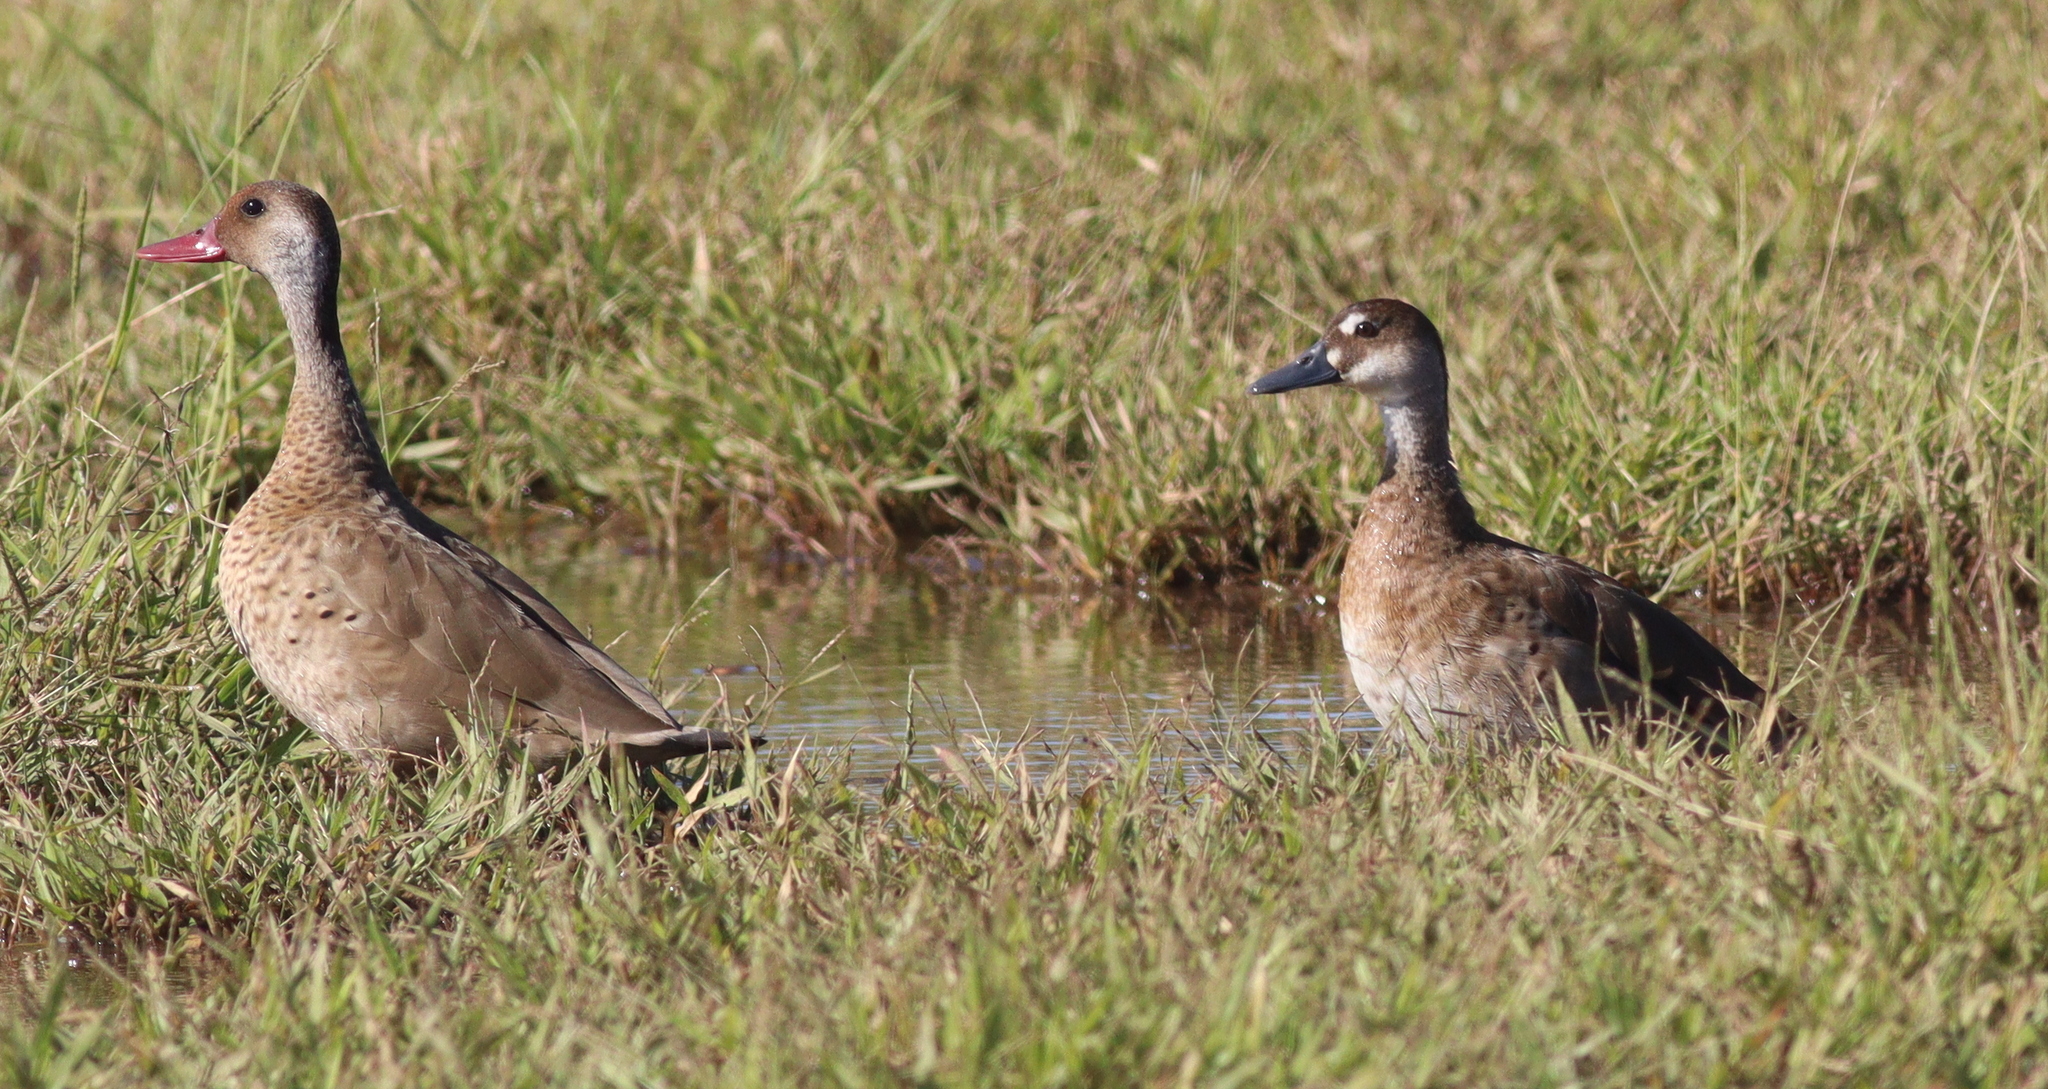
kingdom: Animalia
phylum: Chordata
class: Aves
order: Anseriformes
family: Anatidae
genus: Amazonetta
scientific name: Amazonetta brasiliensis
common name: Brazilian teal
